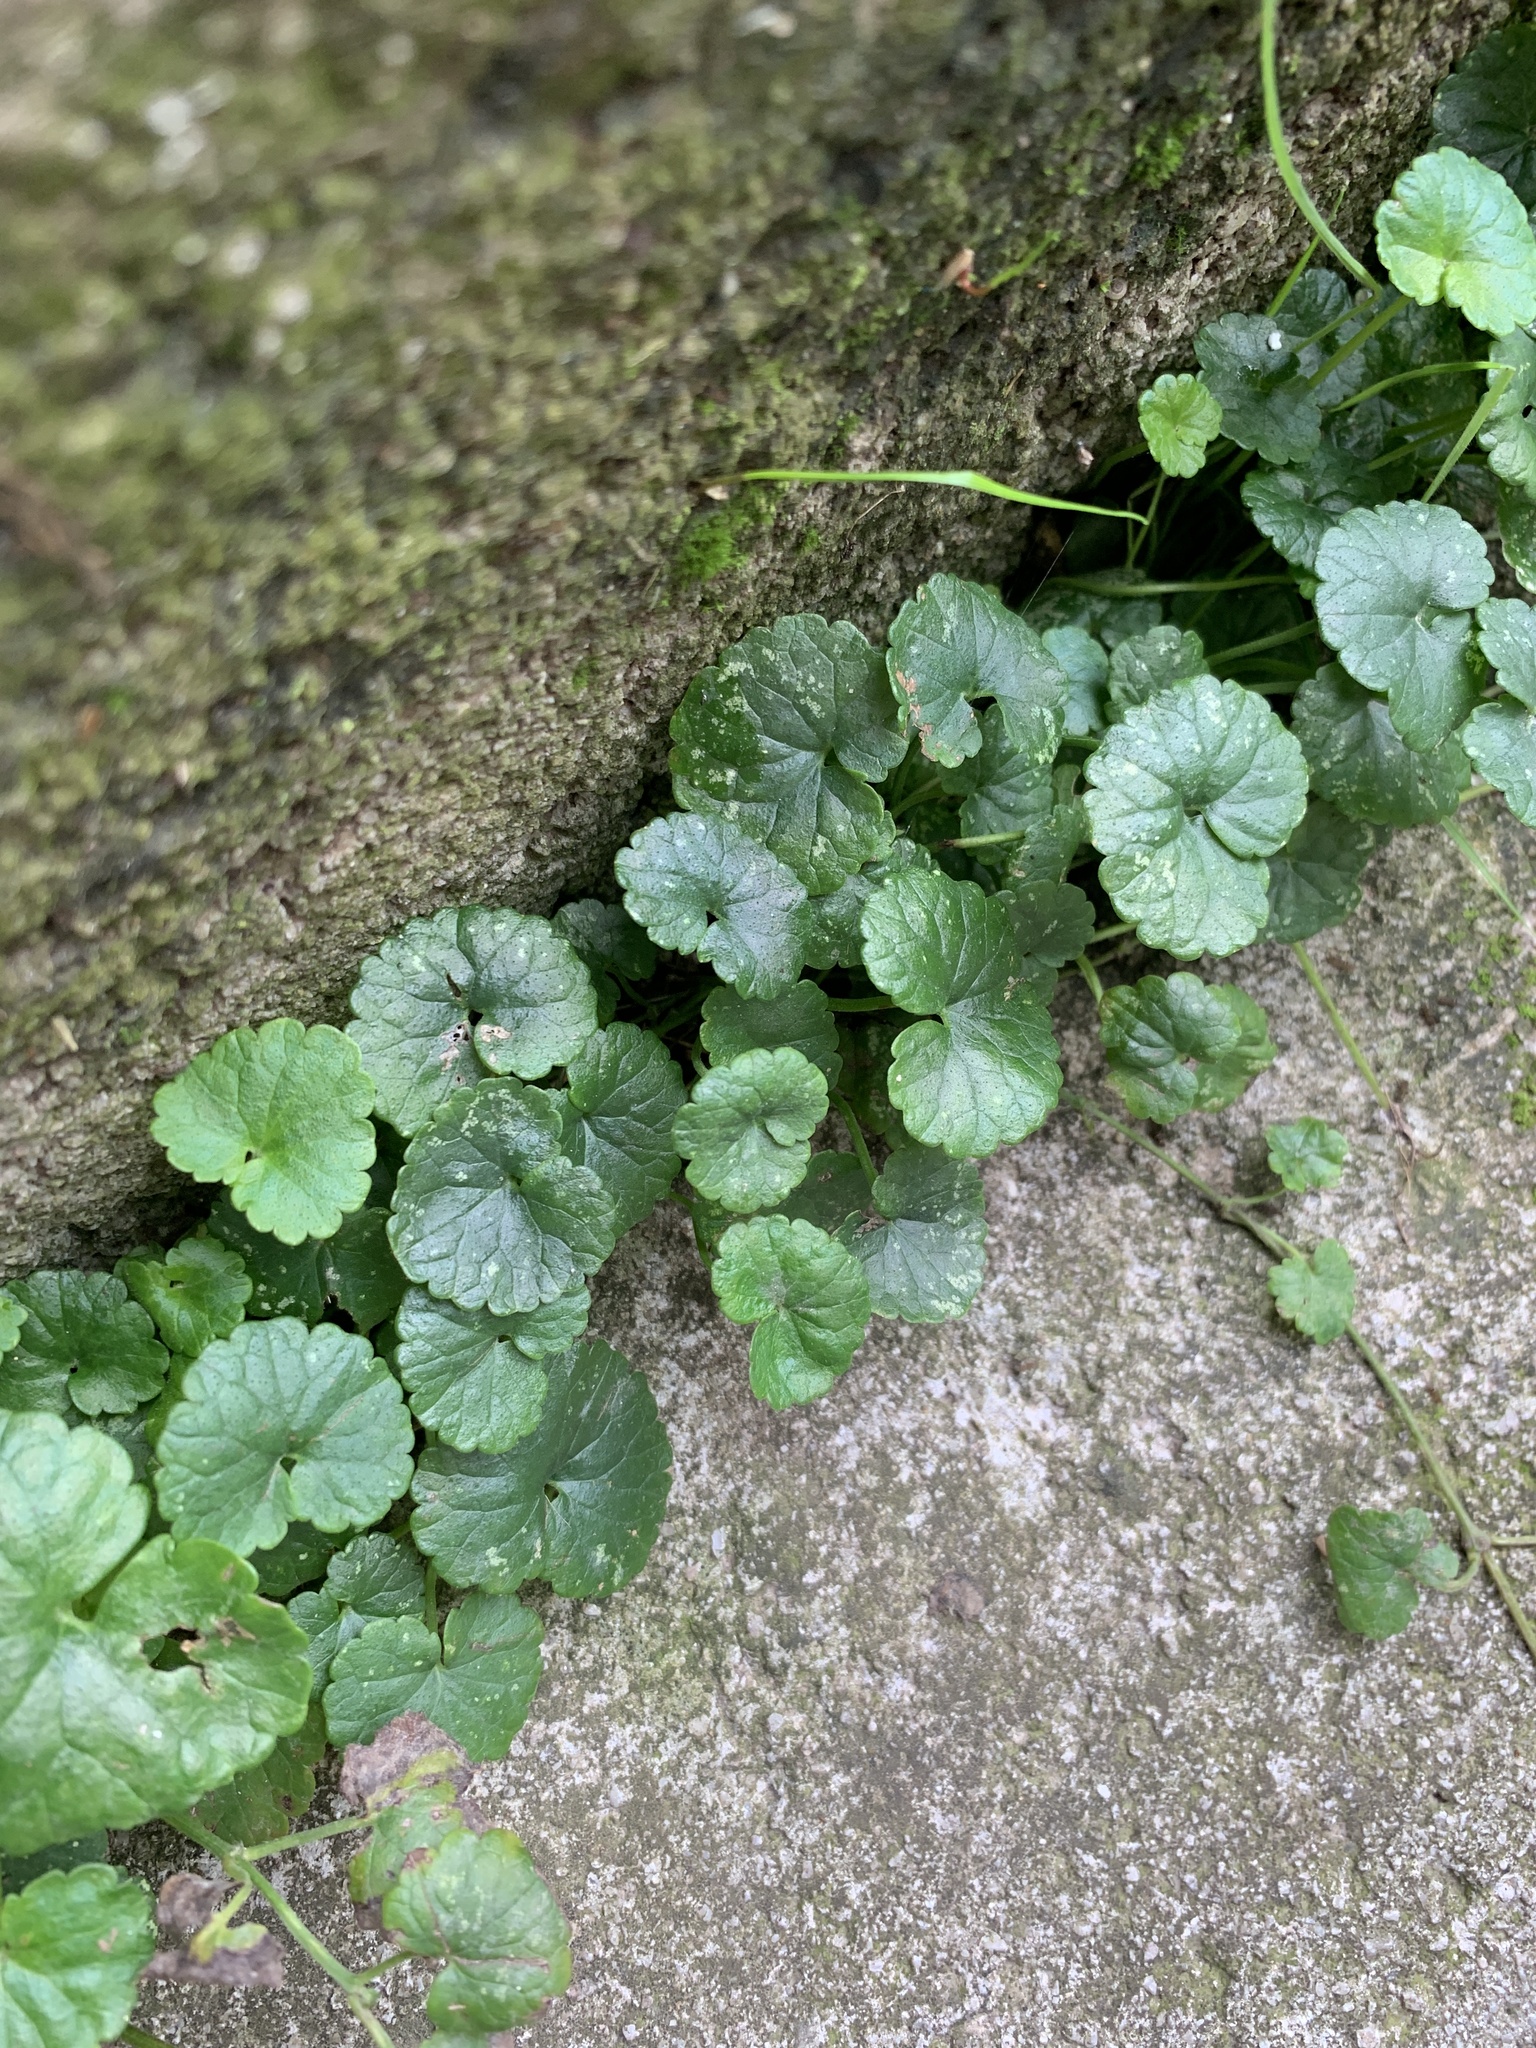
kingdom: Plantae
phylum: Tracheophyta
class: Magnoliopsida
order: Lamiales
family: Lamiaceae
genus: Glechoma
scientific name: Glechoma hederacea
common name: Ground ivy
